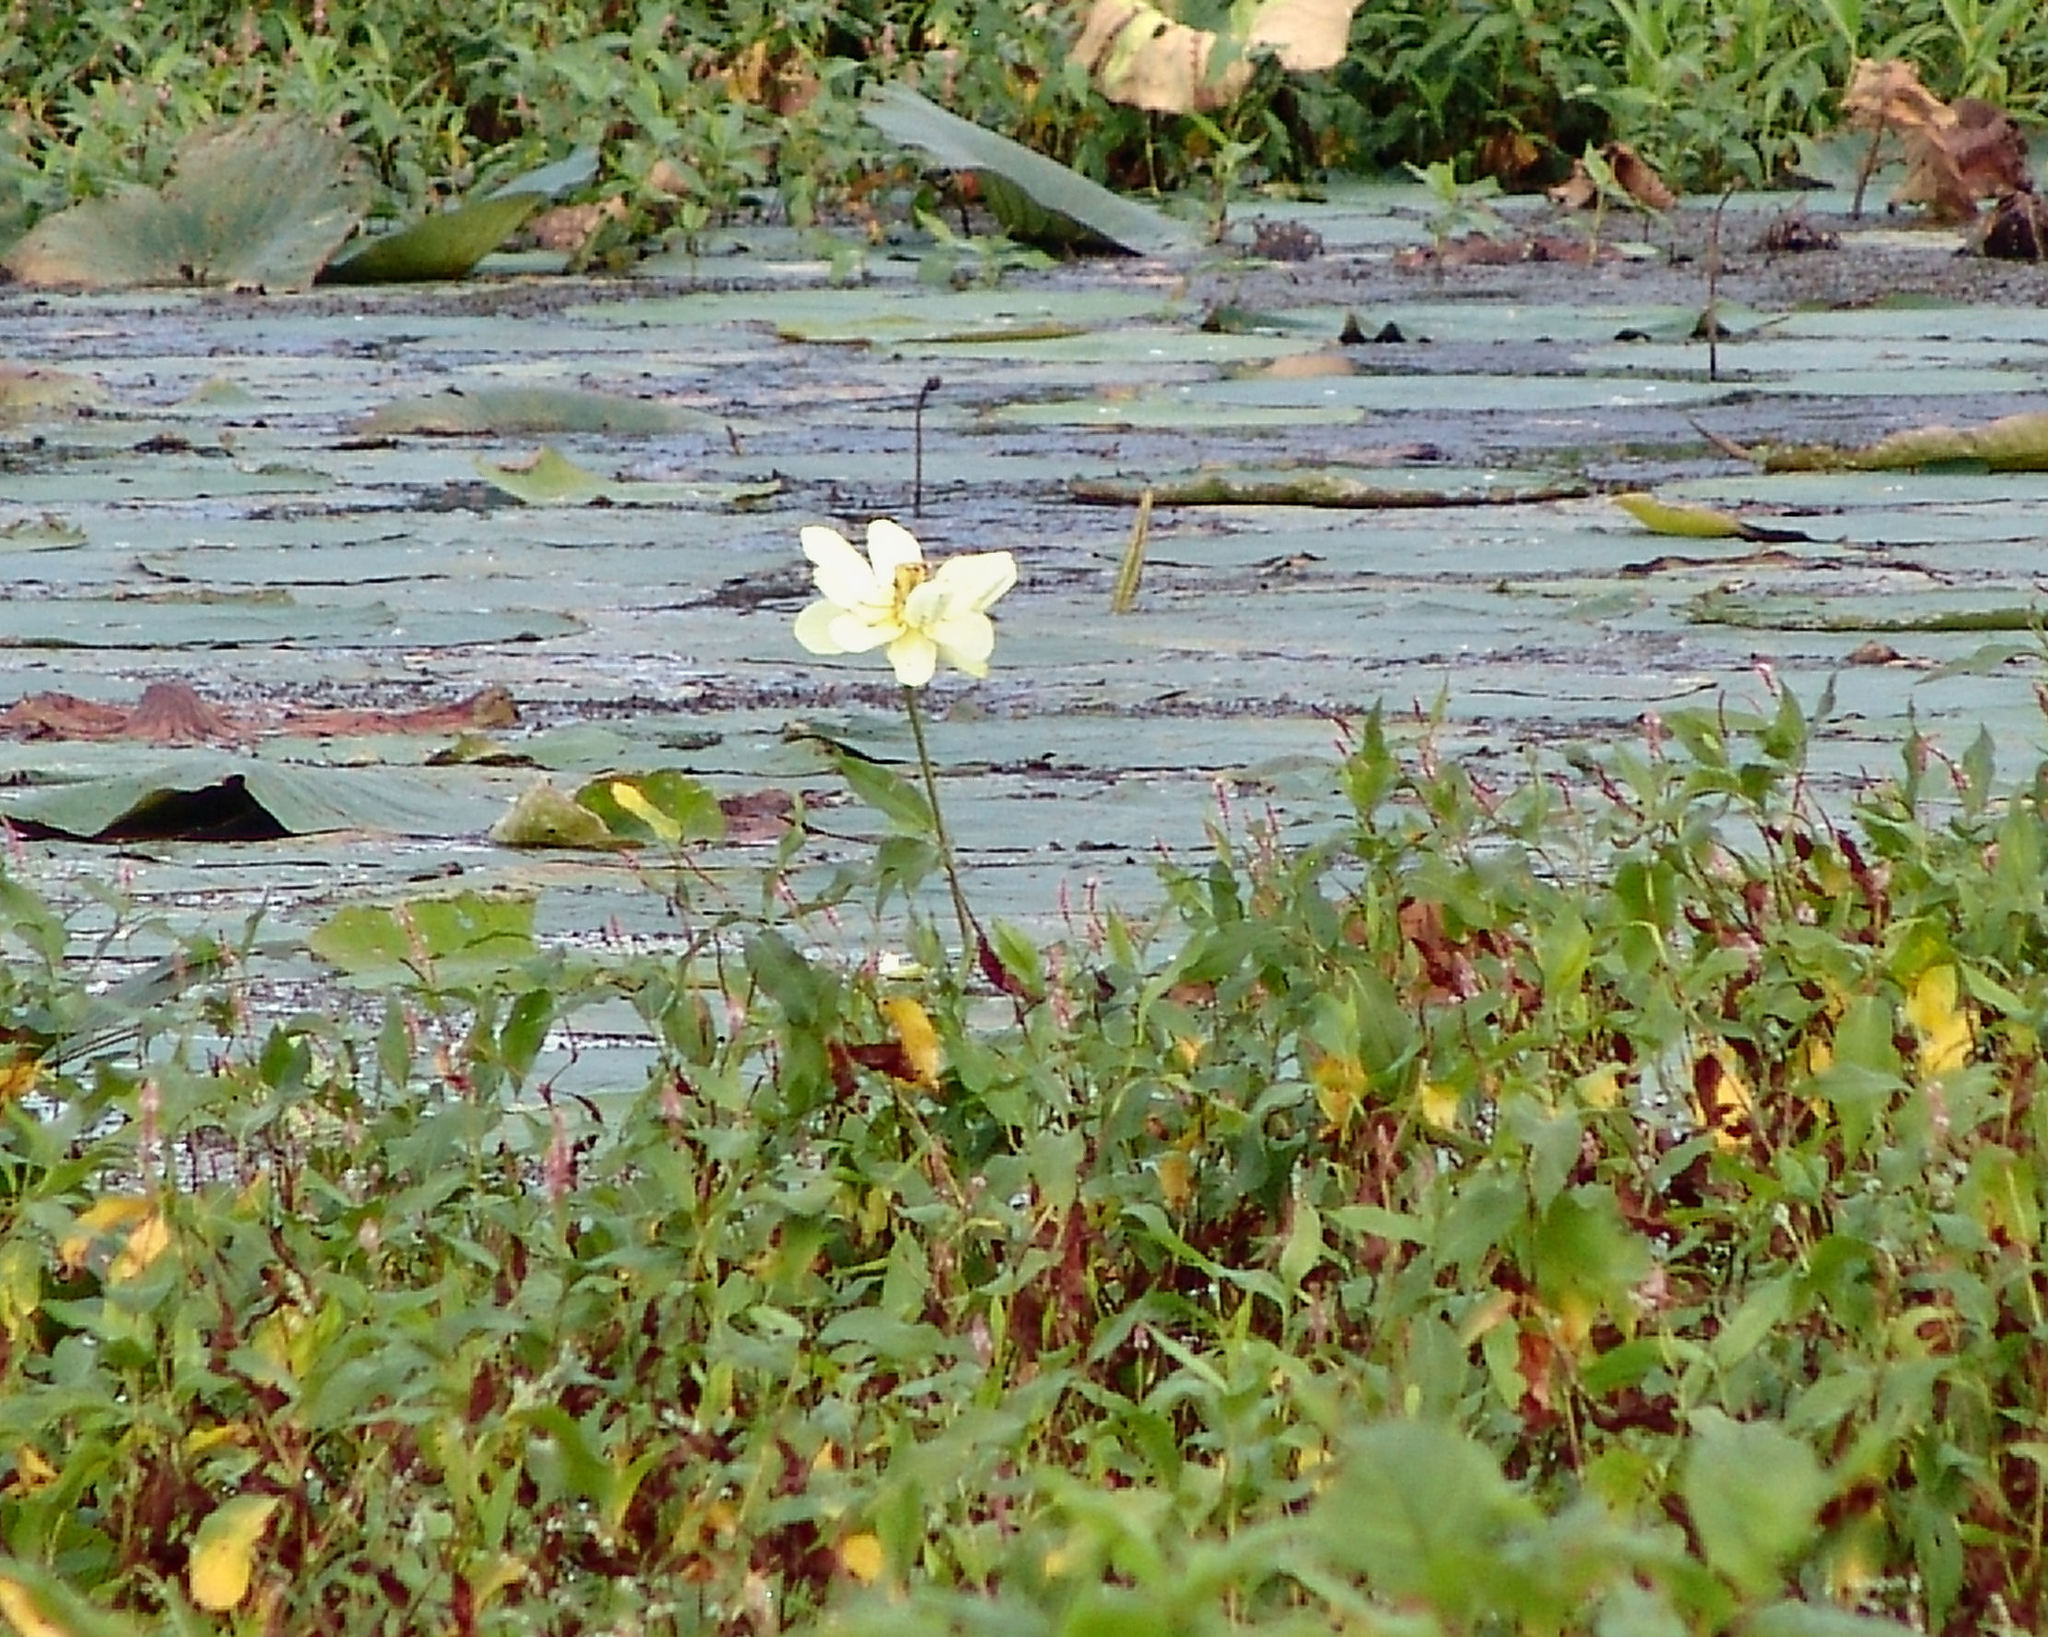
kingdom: Plantae
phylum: Tracheophyta
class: Magnoliopsida
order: Proteales
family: Nelumbonaceae
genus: Nelumbo
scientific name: Nelumbo lutea
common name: American lotus
